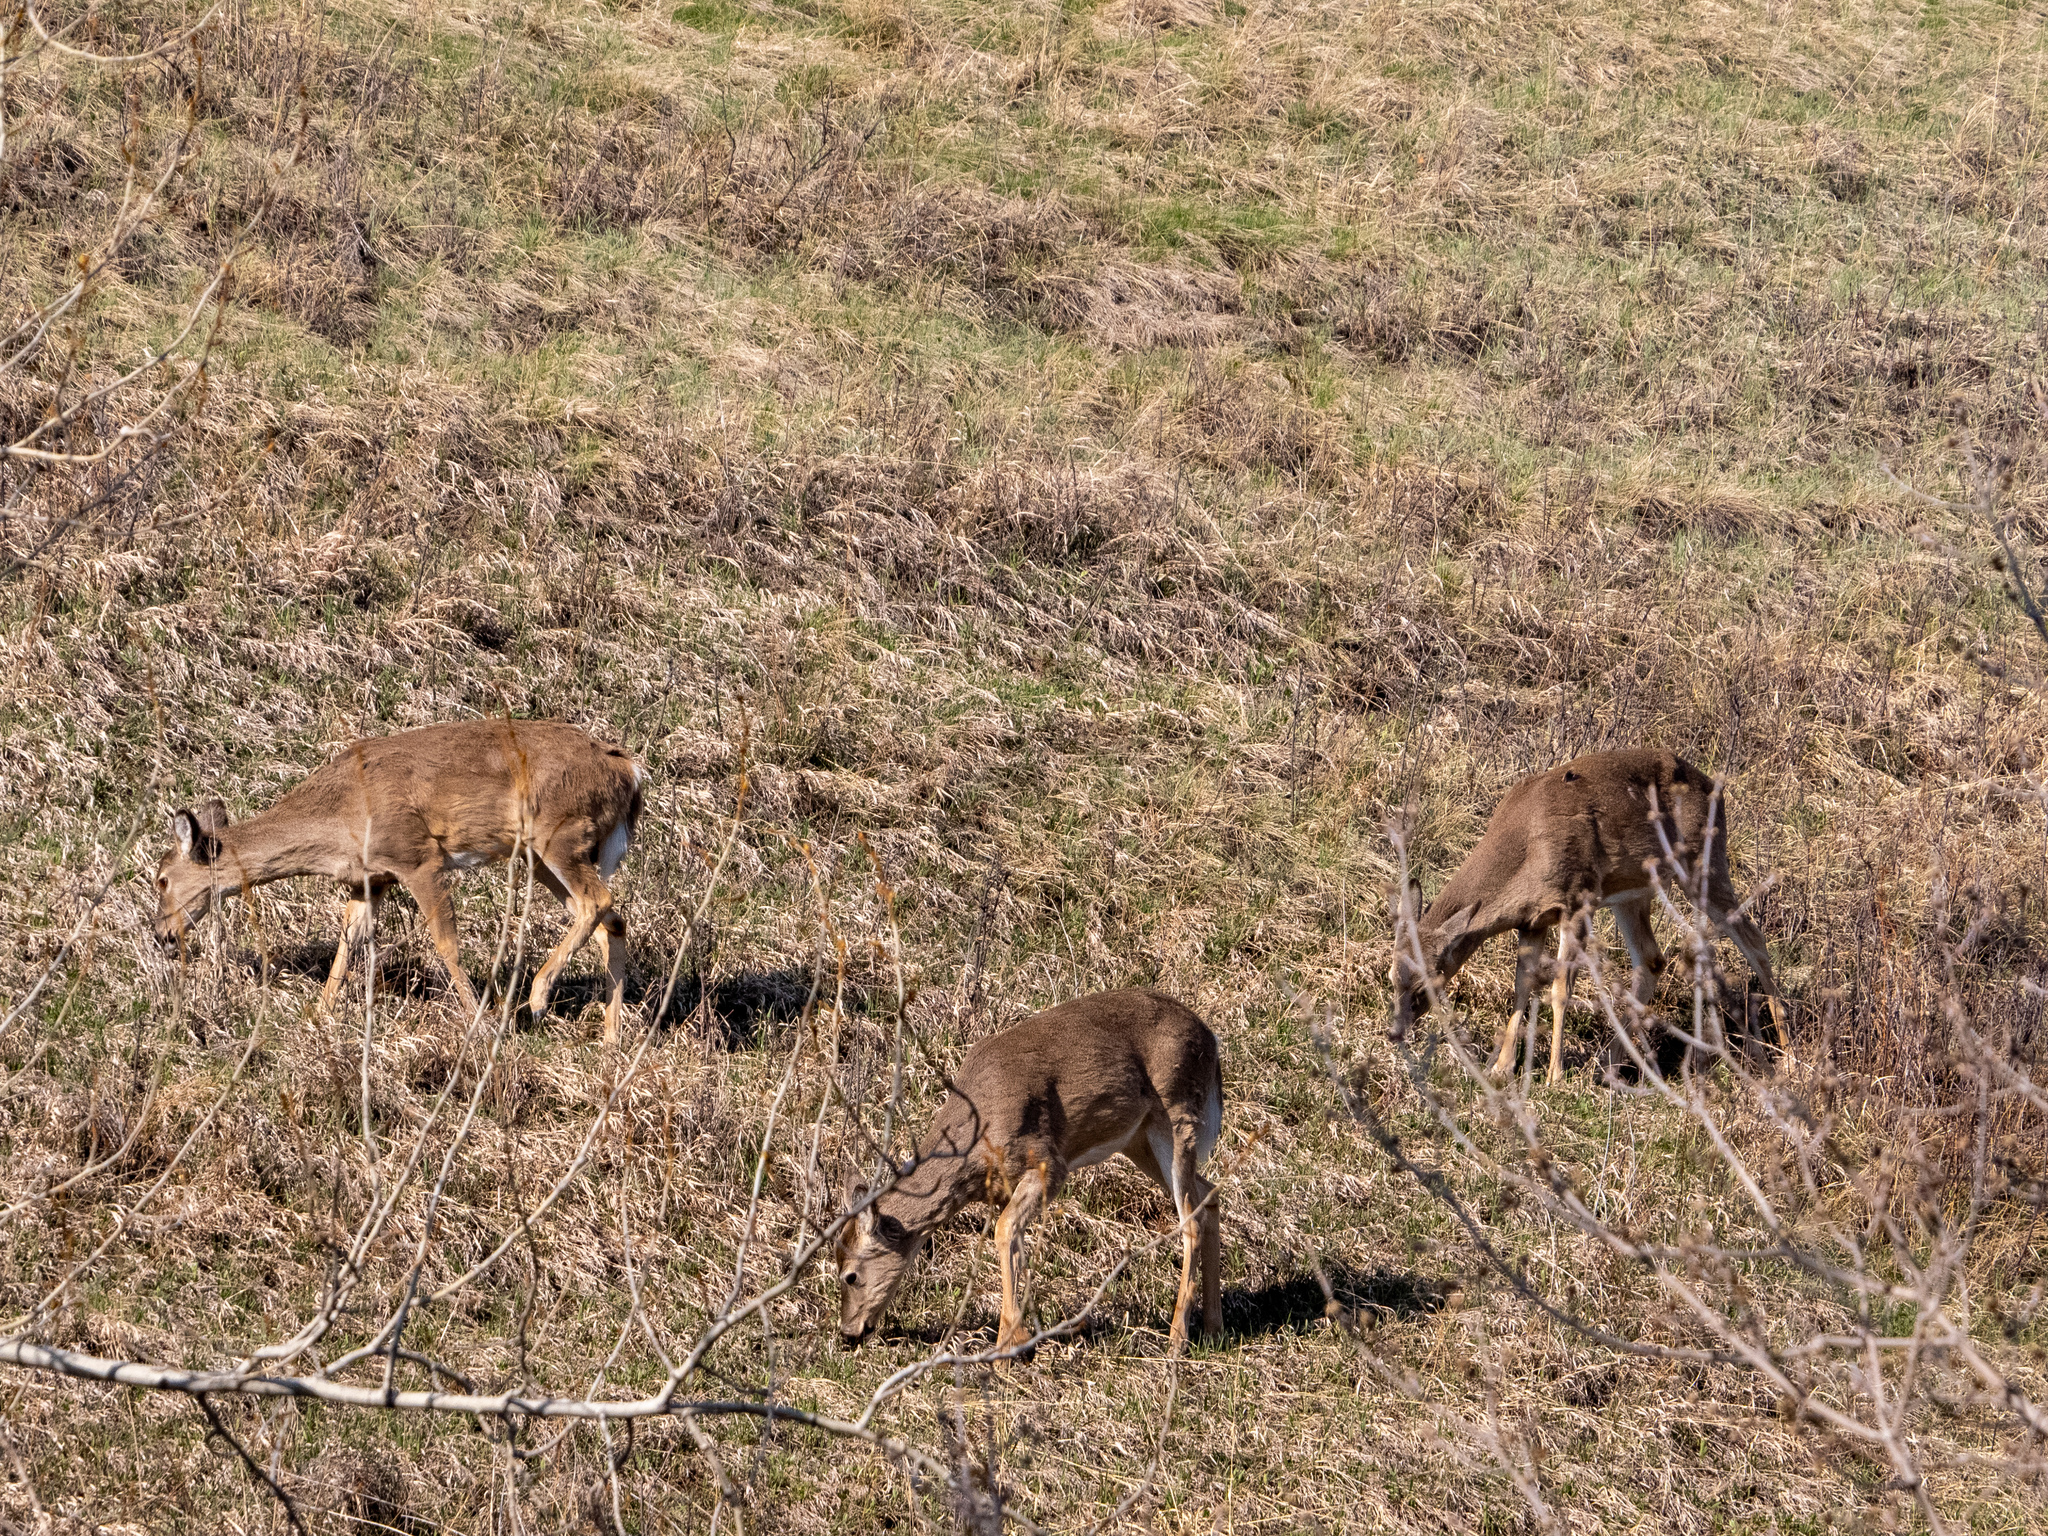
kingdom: Animalia
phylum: Chordata
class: Mammalia
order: Artiodactyla
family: Cervidae
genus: Odocoileus
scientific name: Odocoileus virginianus
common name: White-tailed deer
